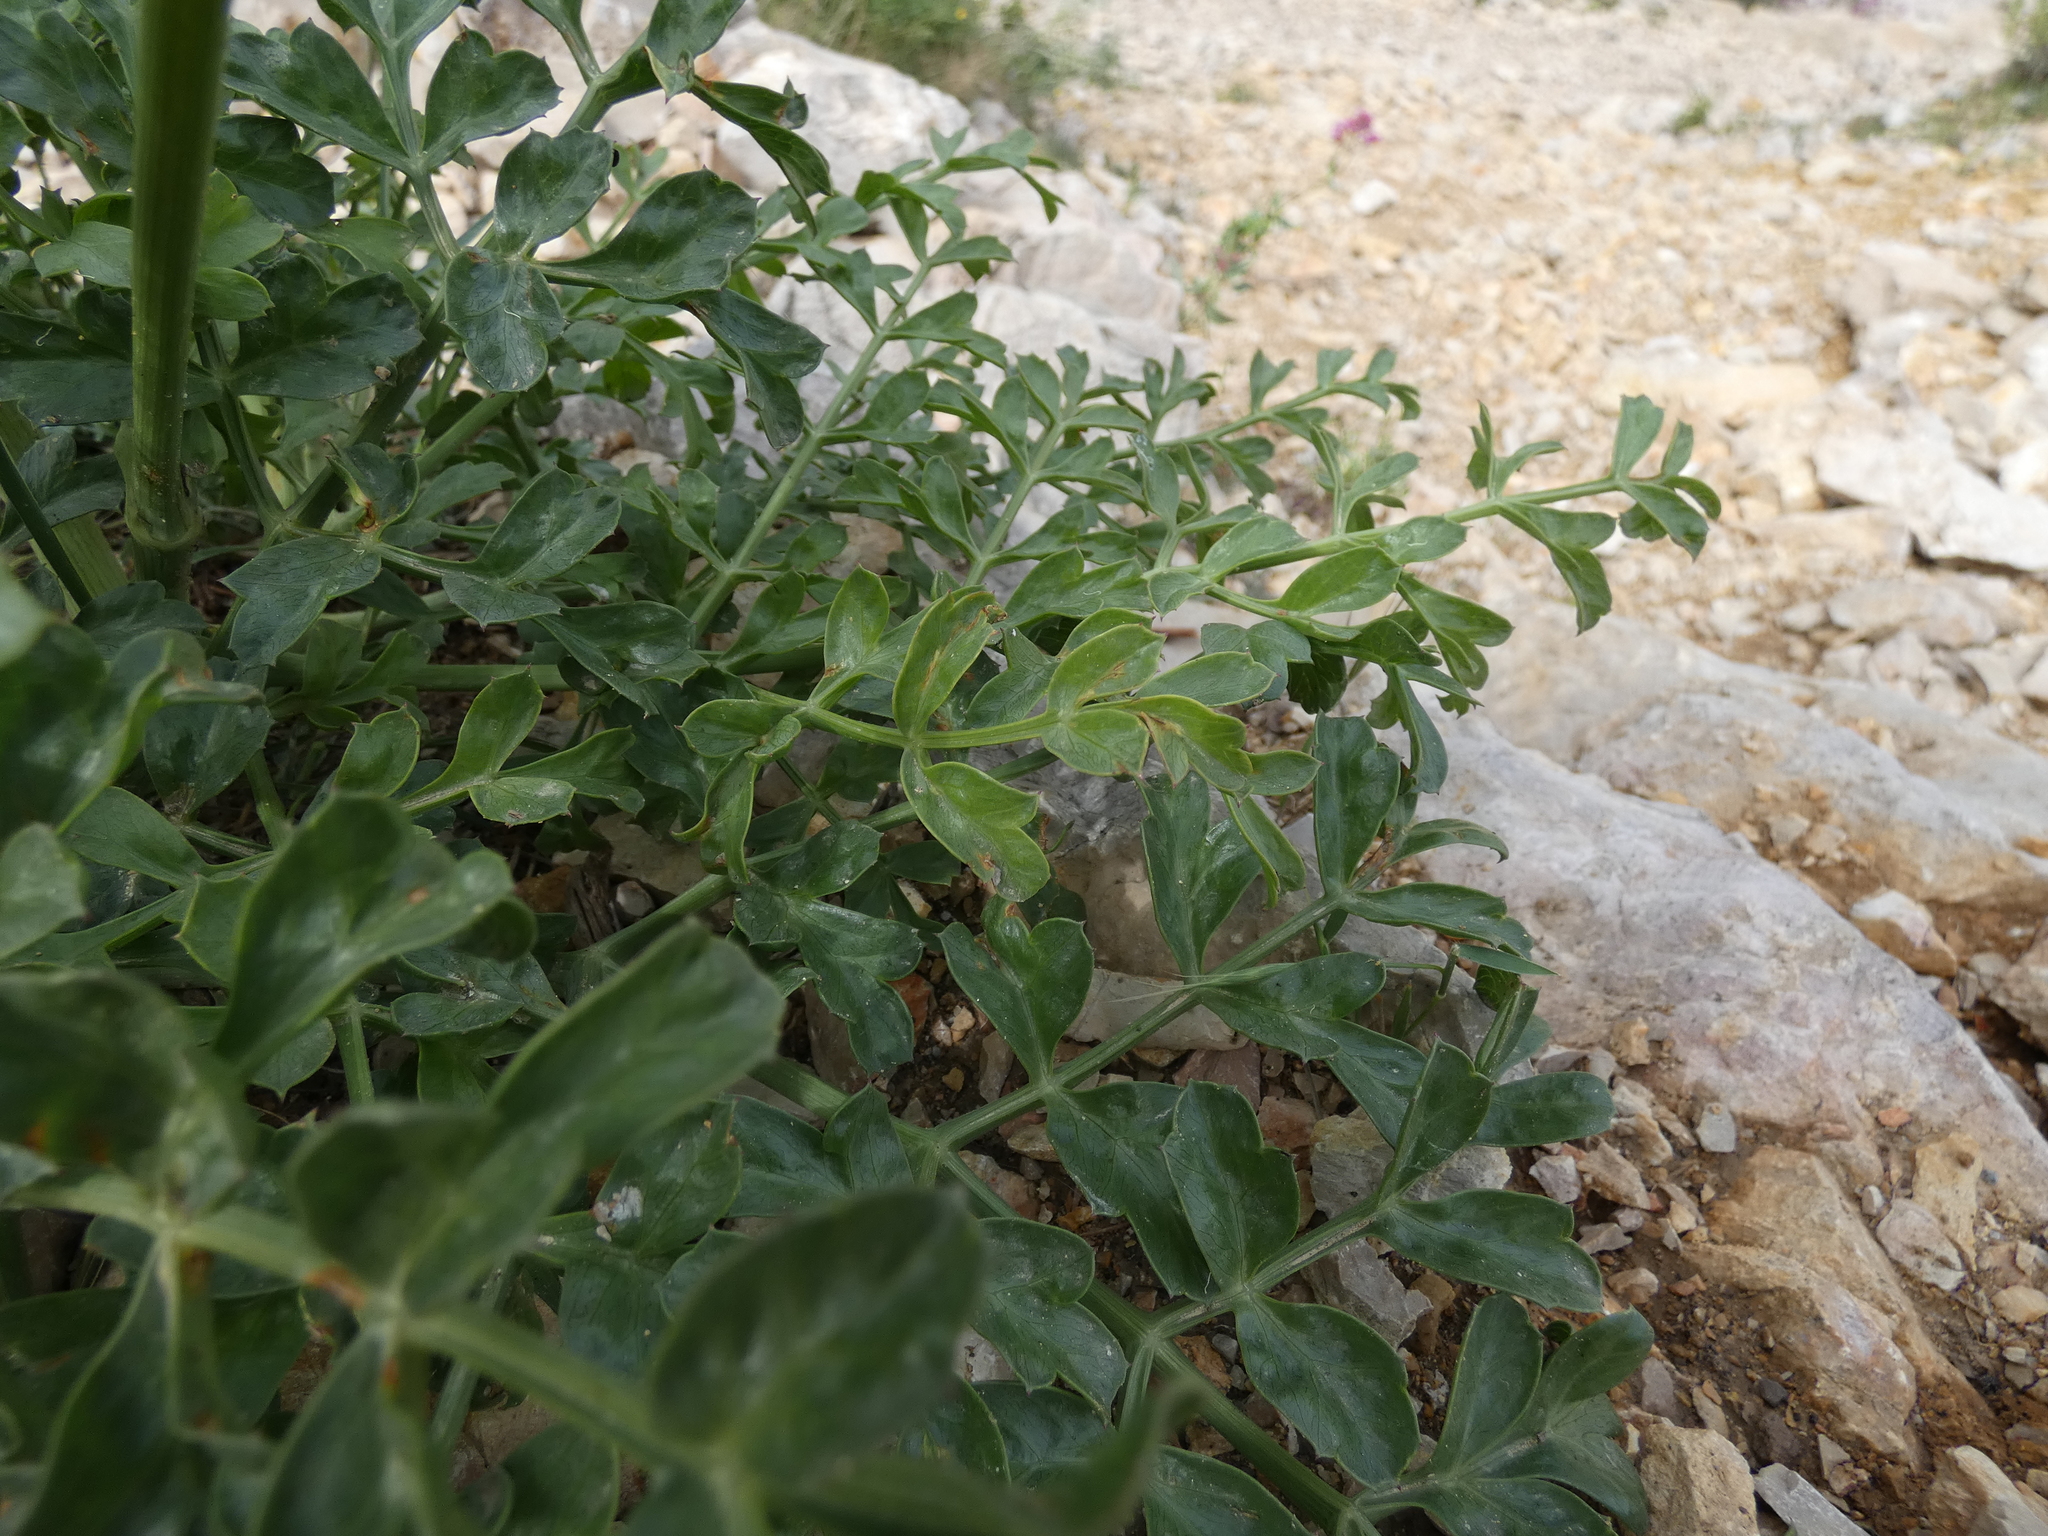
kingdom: Plantae
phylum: Tracheophyta
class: Magnoliopsida
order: Apiales
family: Apiaceae
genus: Laserpitium
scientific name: Laserpitium gallicum
